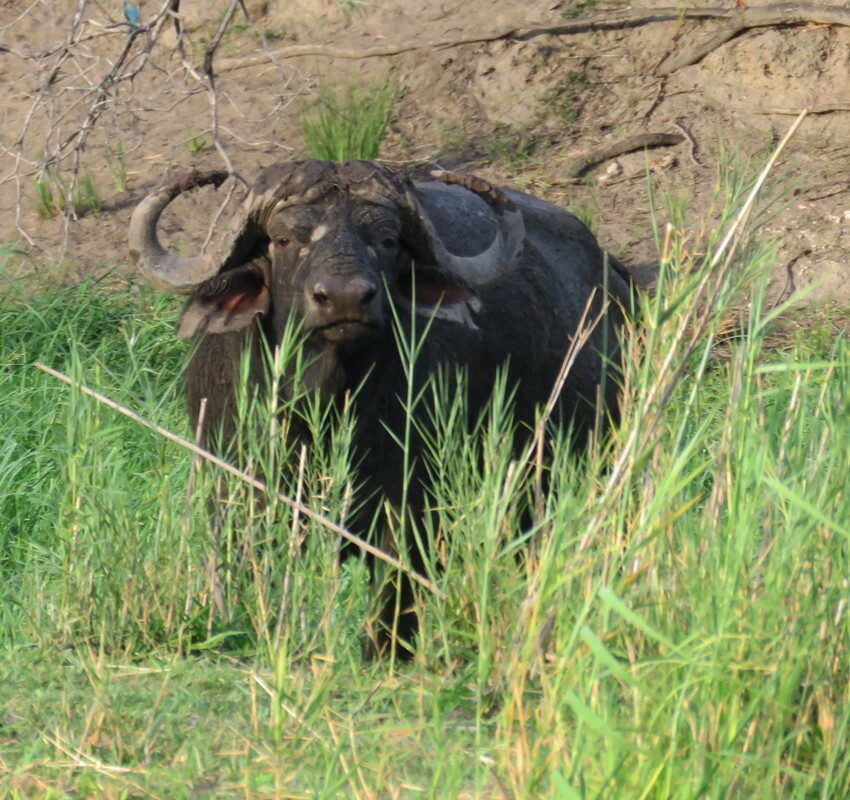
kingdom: Animalia
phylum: Chordata
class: Mammalia
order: Artiodactyla
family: Bovidae
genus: Syncerus
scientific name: Syncerus caffer
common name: African buffalo
